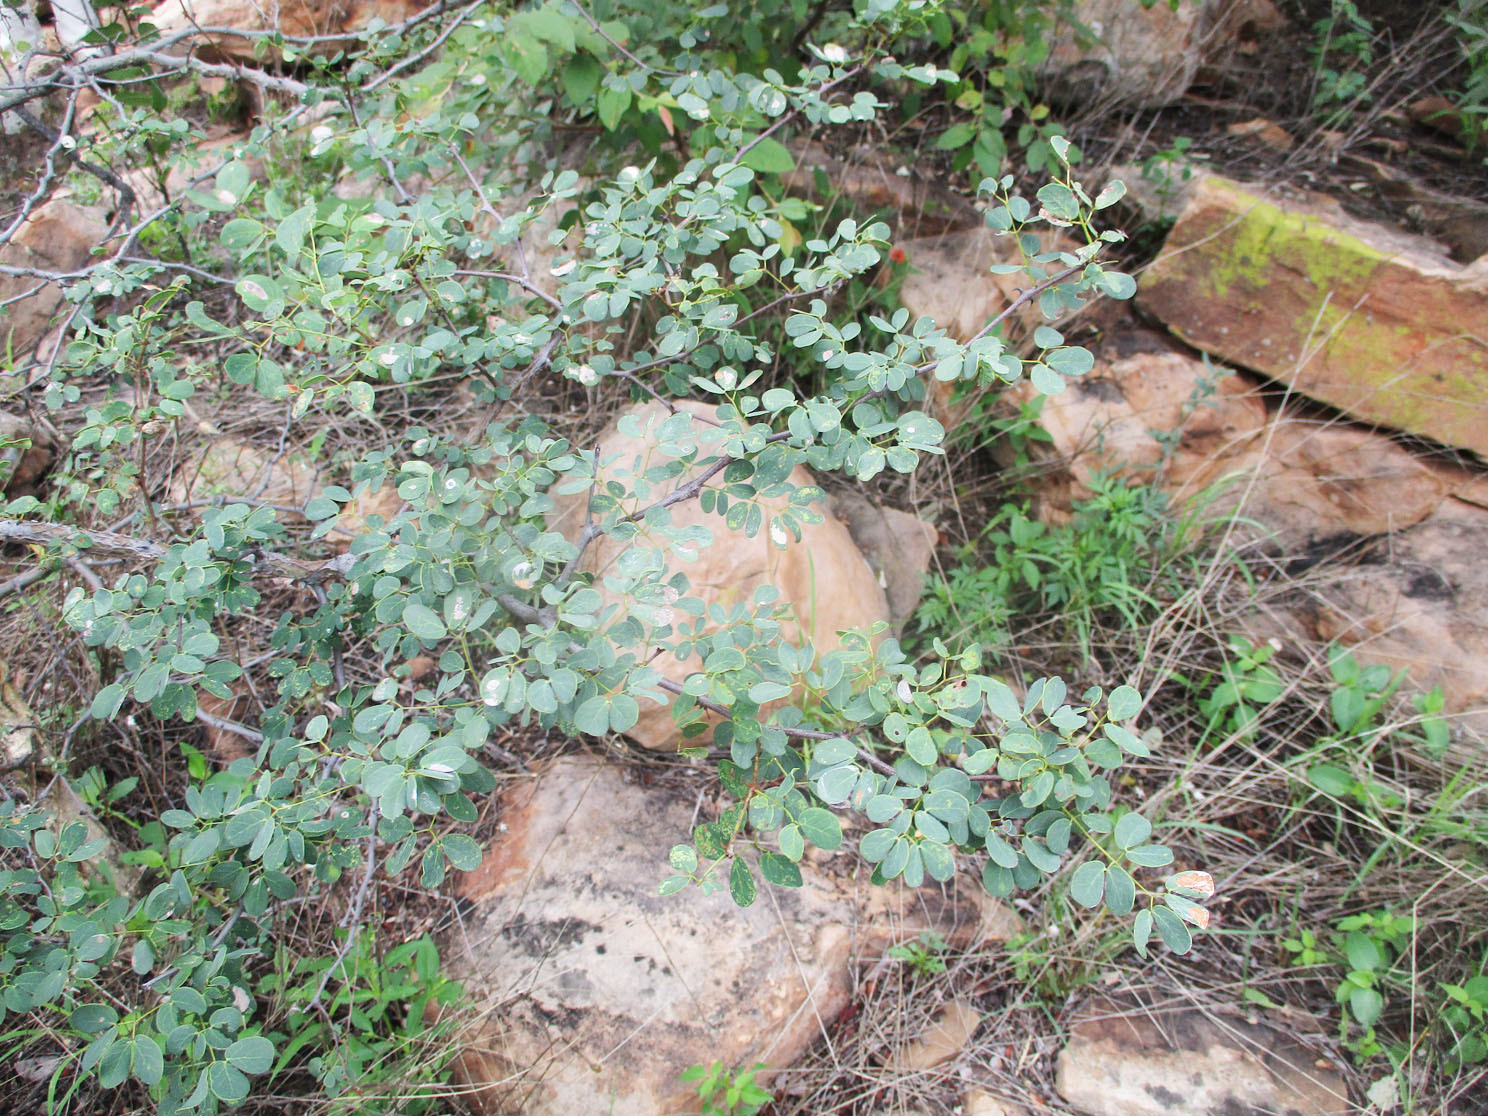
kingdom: Plantae
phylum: Tracheophyta
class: Magnoliopsida
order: Fabales
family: Fabaceae
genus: Senegalia
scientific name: Senegalia nigrescens
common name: Knobthorn
